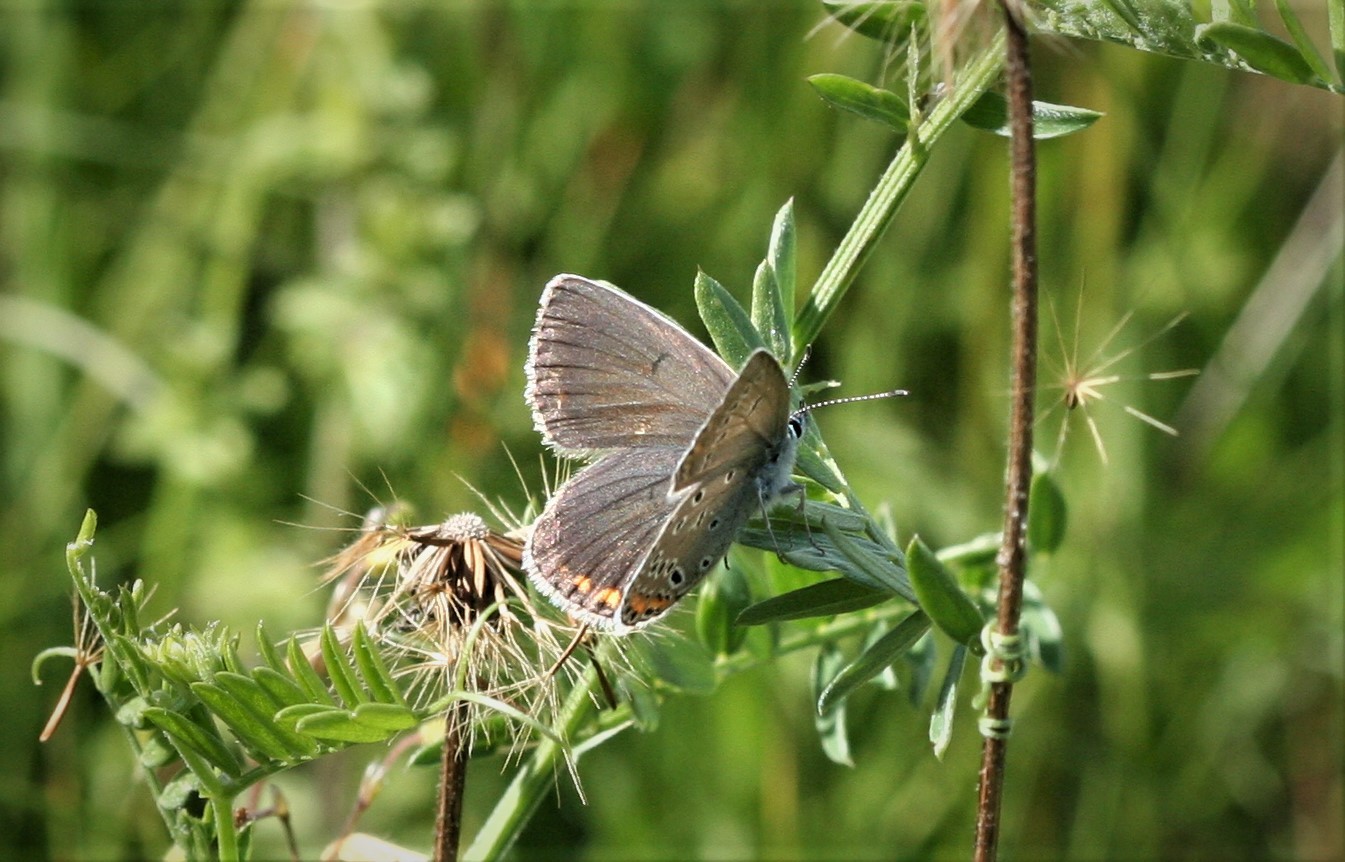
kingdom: Animalia
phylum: Arthropoda
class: Insecta
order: Lepidoptera
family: Lycaenidae
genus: Plebejus
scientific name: Plebejus amanda
